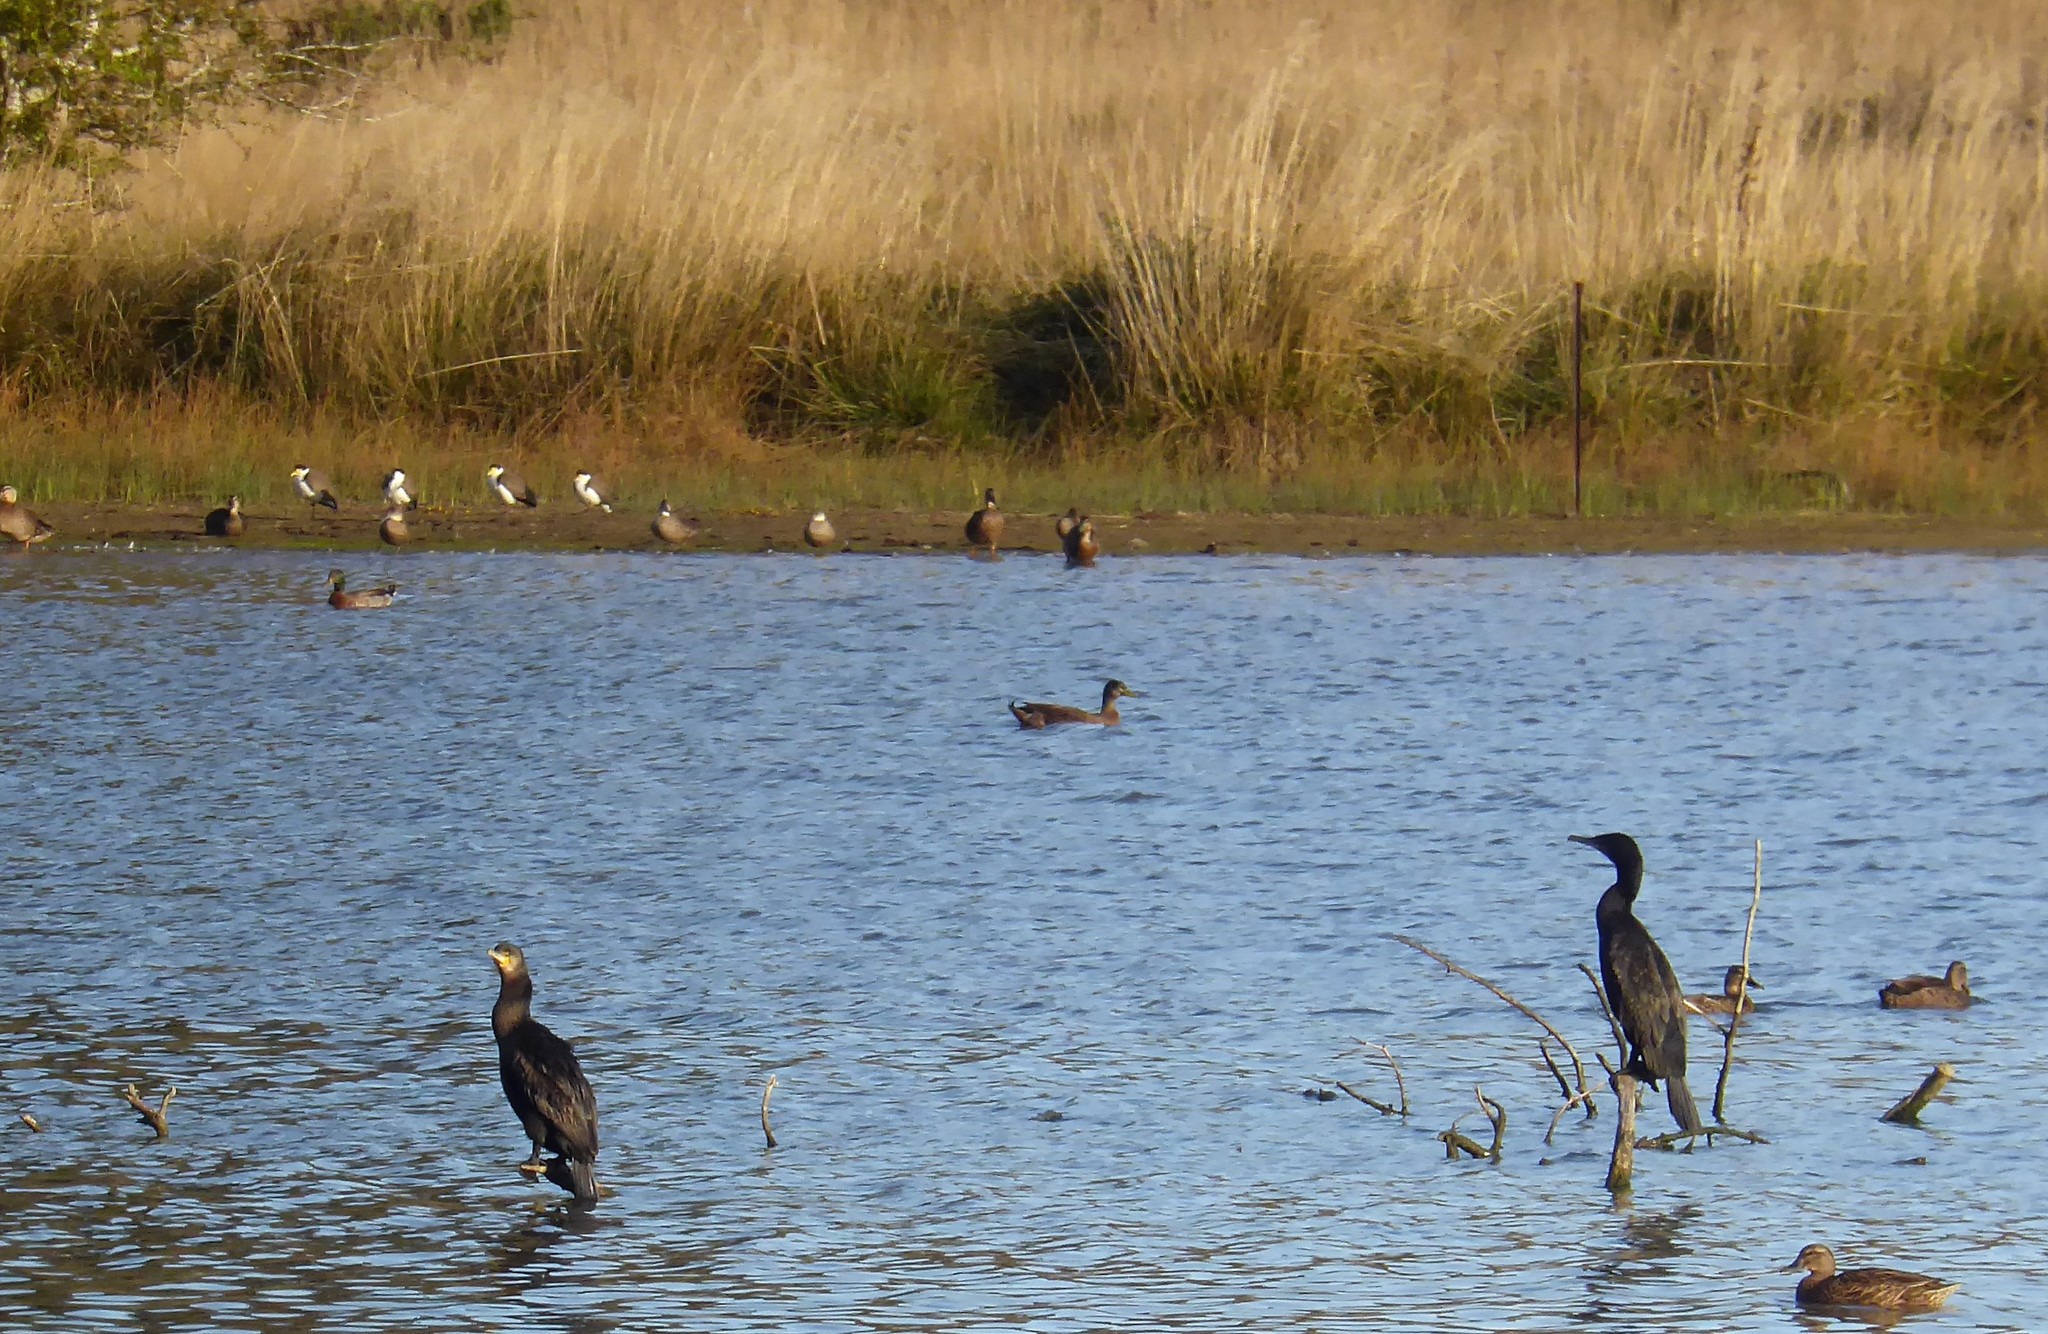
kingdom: Animalia
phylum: Chordata
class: Aves
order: Suliformes
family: Phalacrocoracidae
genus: Phalacrocorax
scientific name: Phalacrocorax carbo
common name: Great cormorant
